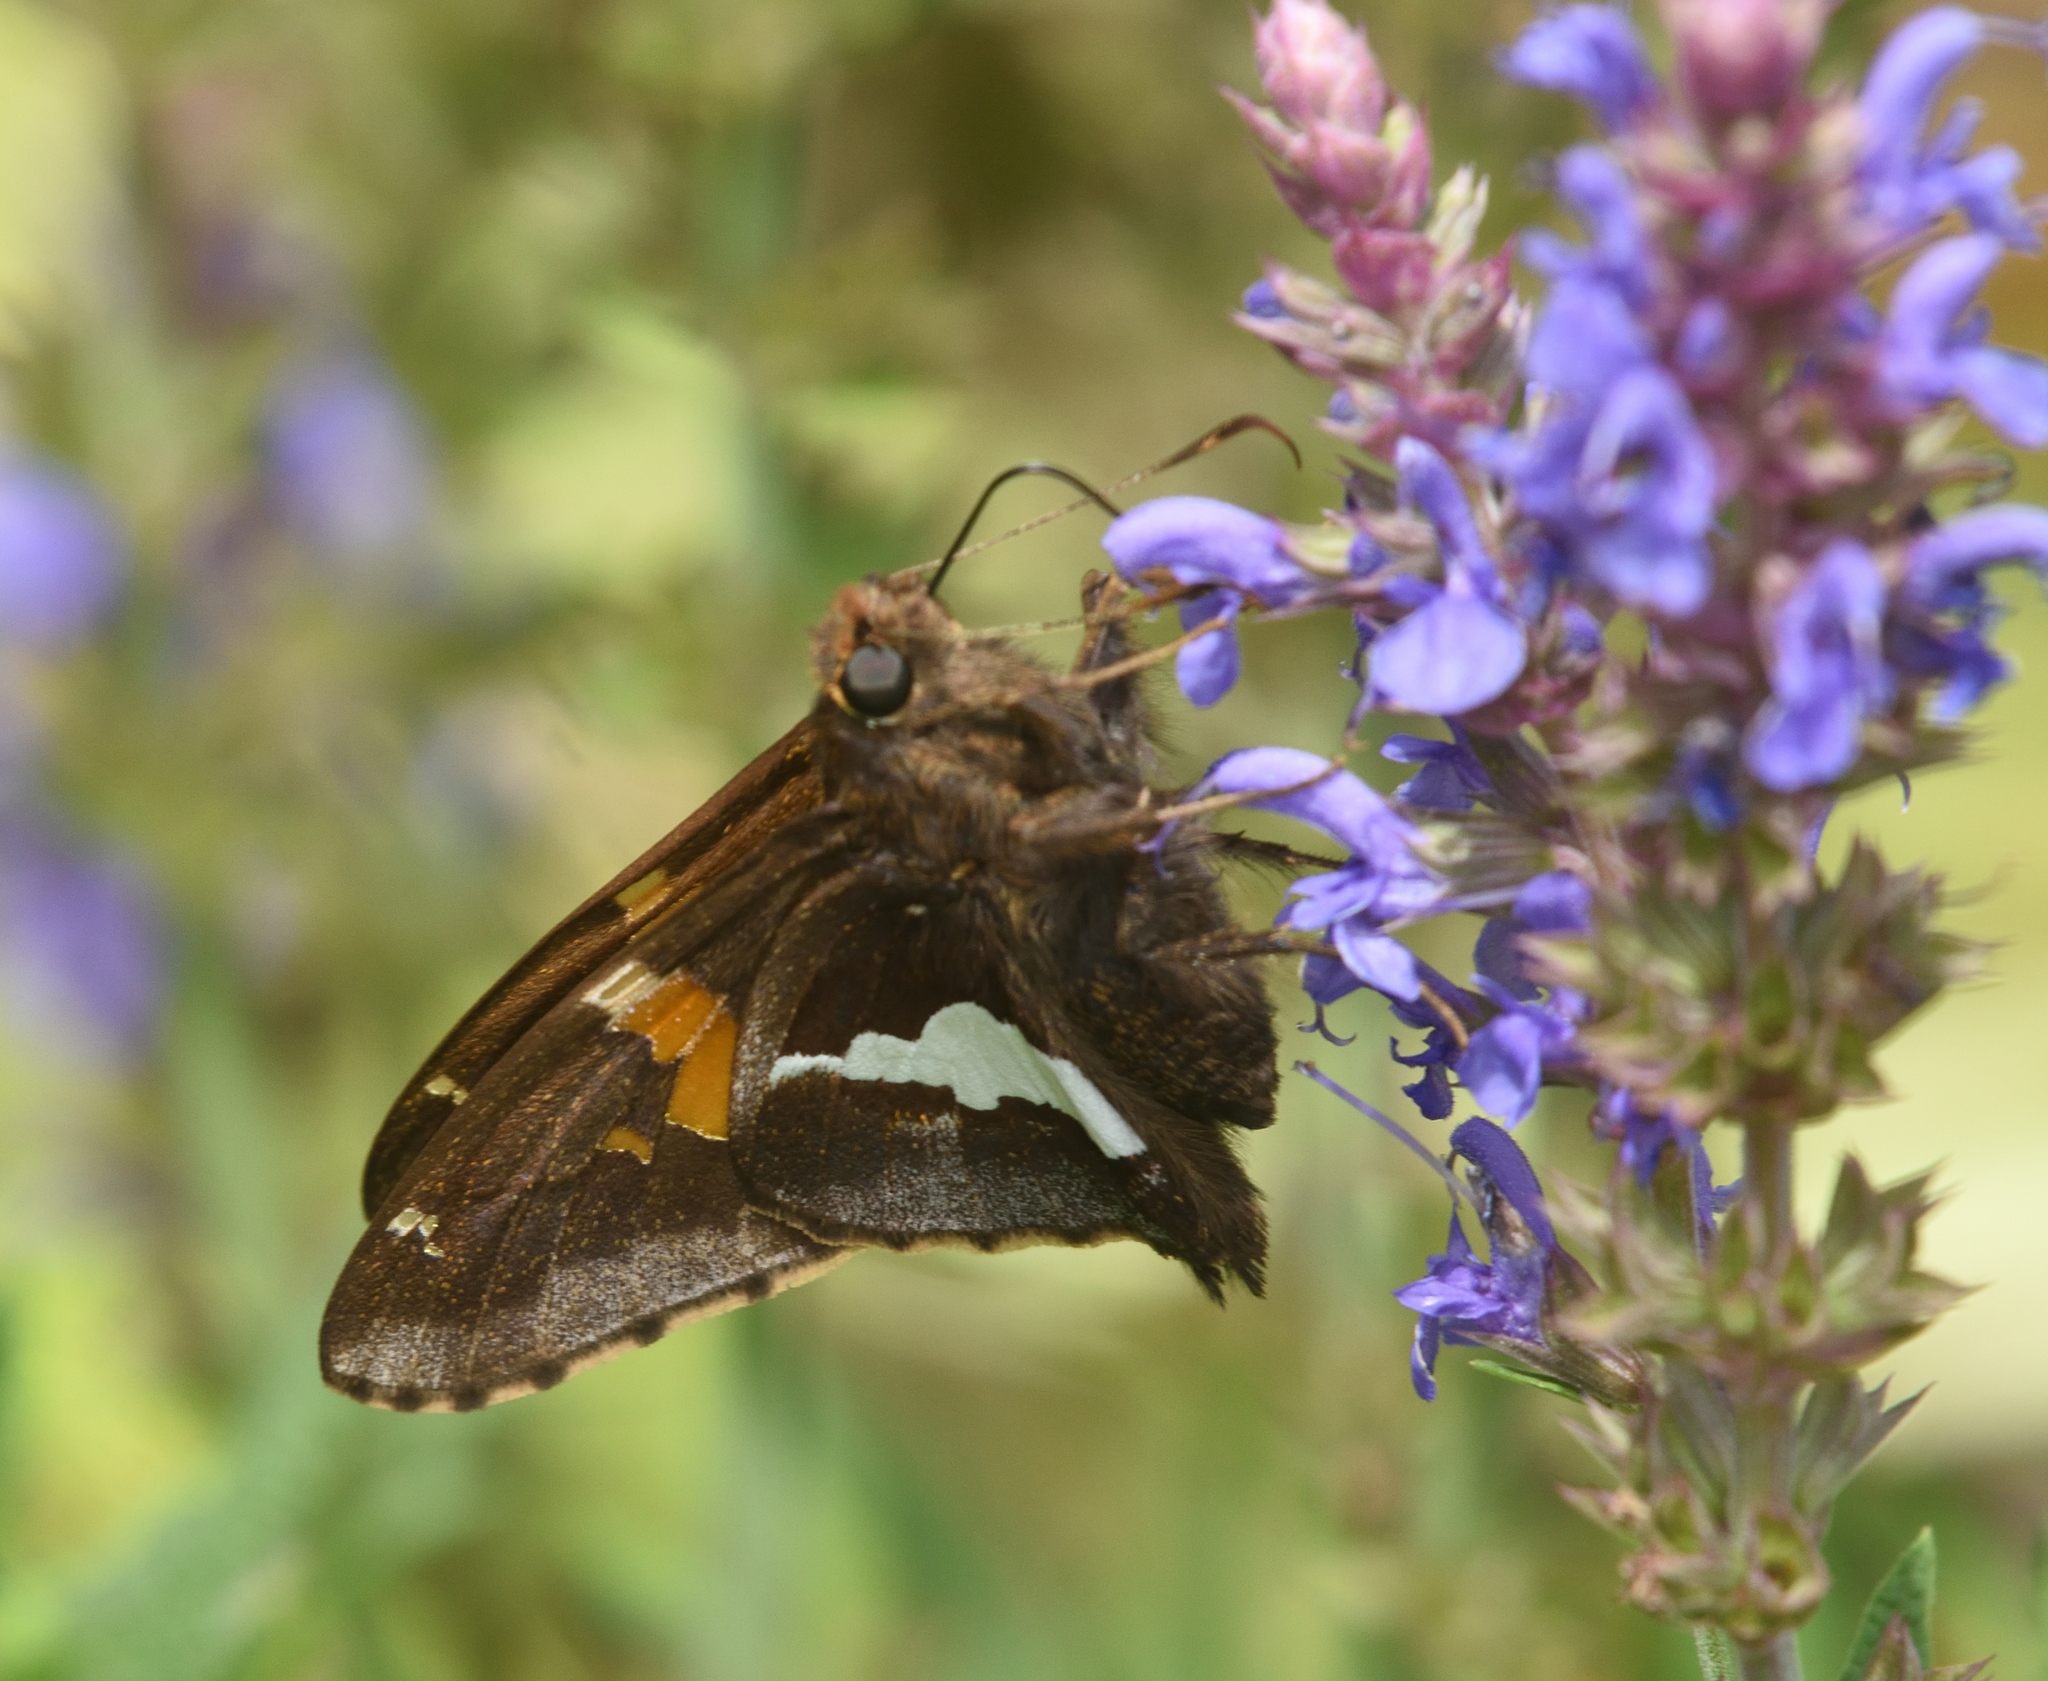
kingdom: Animalia
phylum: Arthropoda
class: Insecta
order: Lepidoptera
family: Hesperiidae
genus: Epargyreus
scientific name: Epargyreus clarus
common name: Silver-spotted skipper
